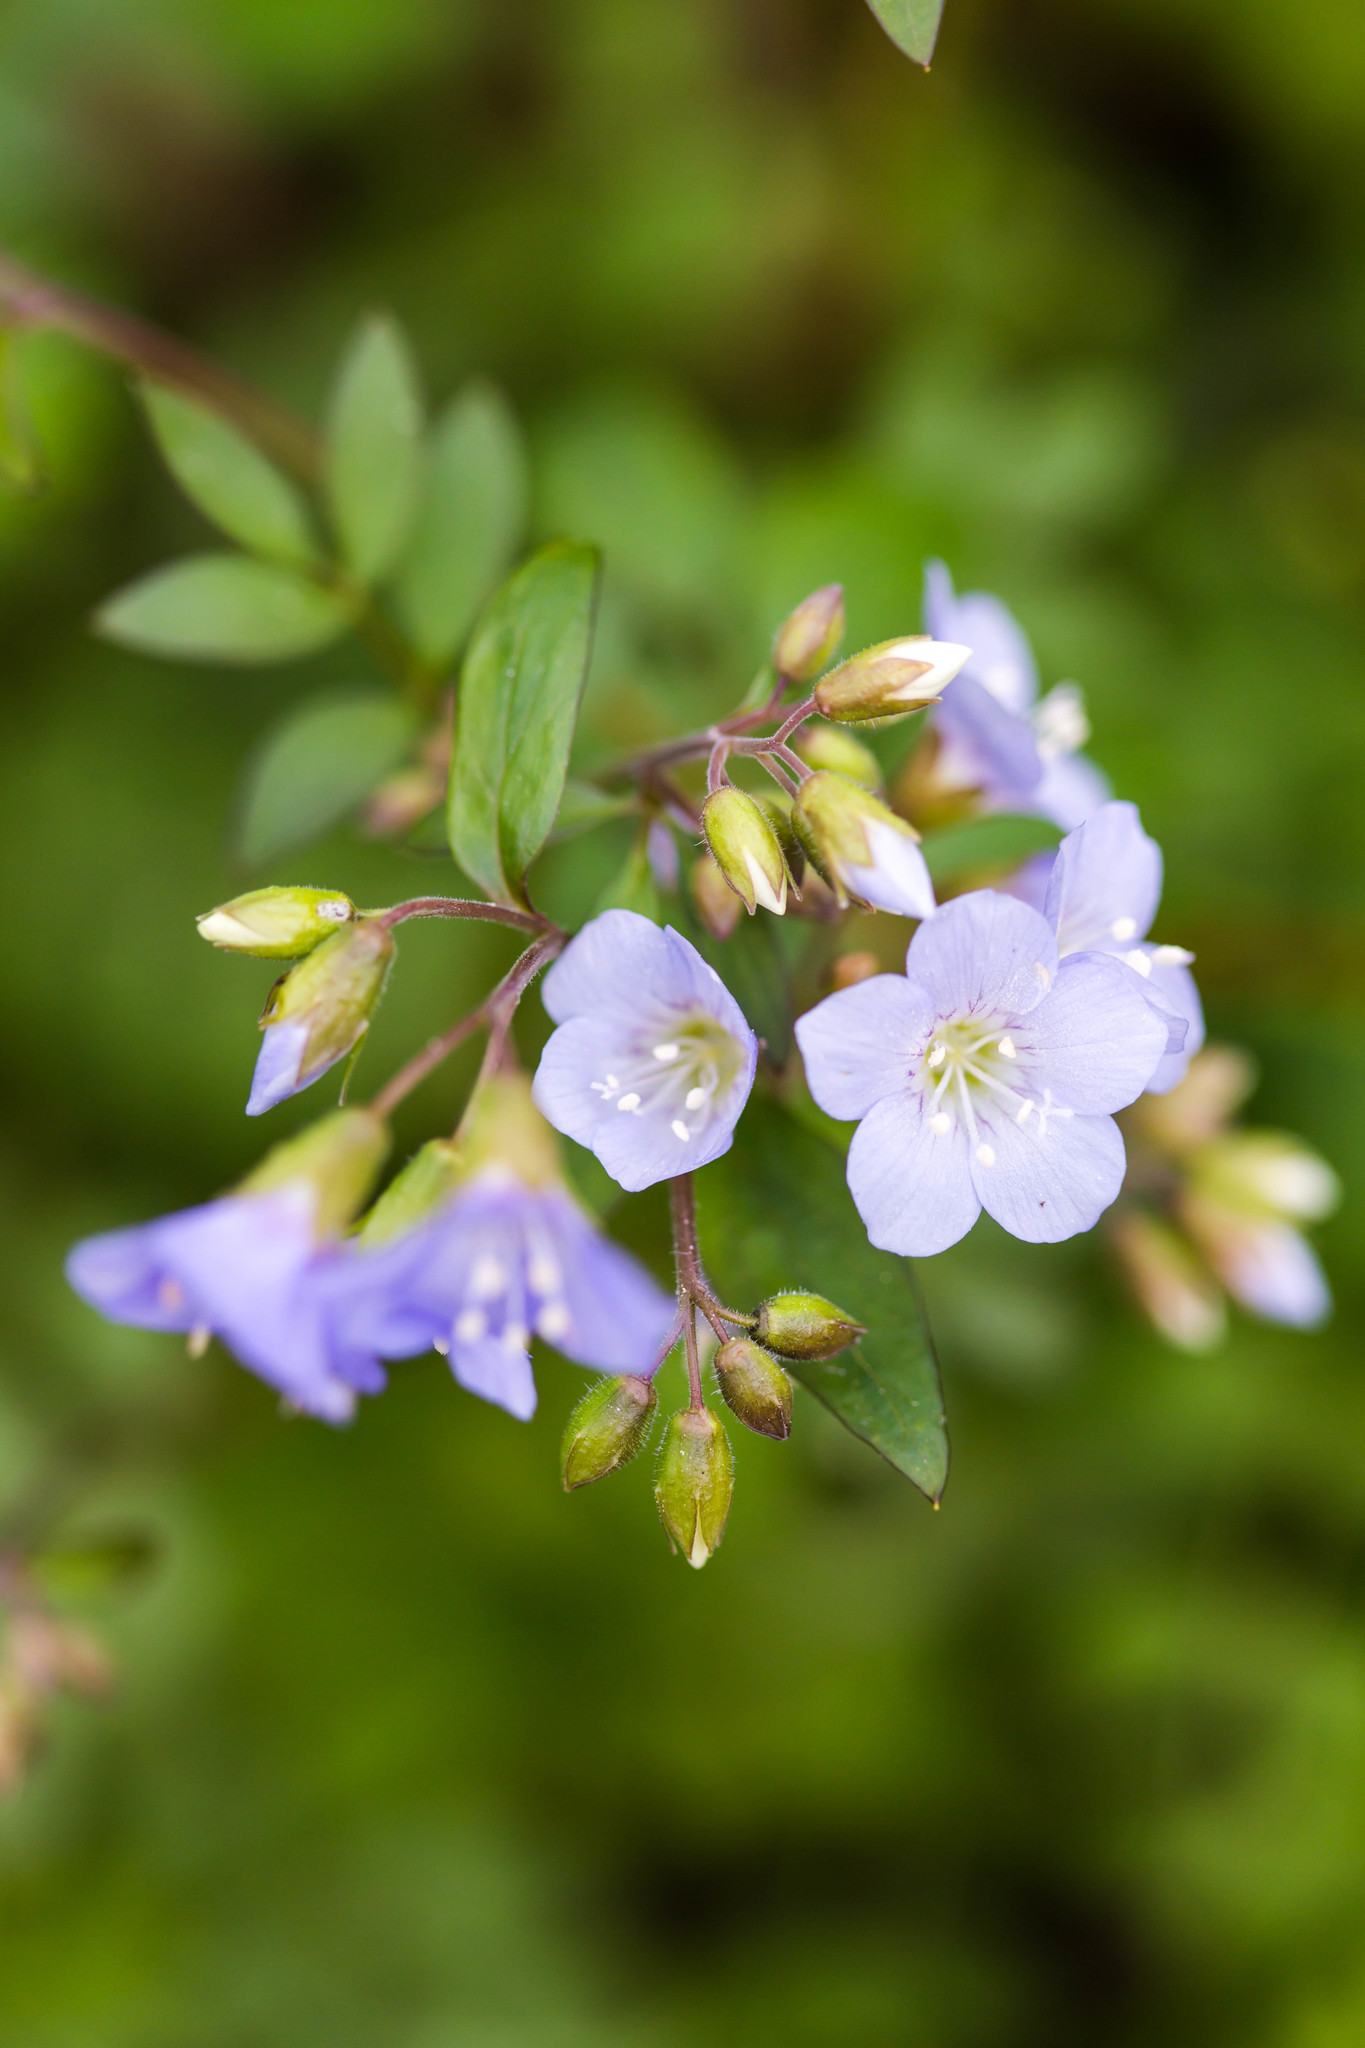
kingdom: Plantae
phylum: Tracheophyta
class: Magnoliopsida
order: Ericales
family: Polemoniaceae
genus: Polemonium
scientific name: Polemonium reptans
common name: Creeping jacob's-ladder
